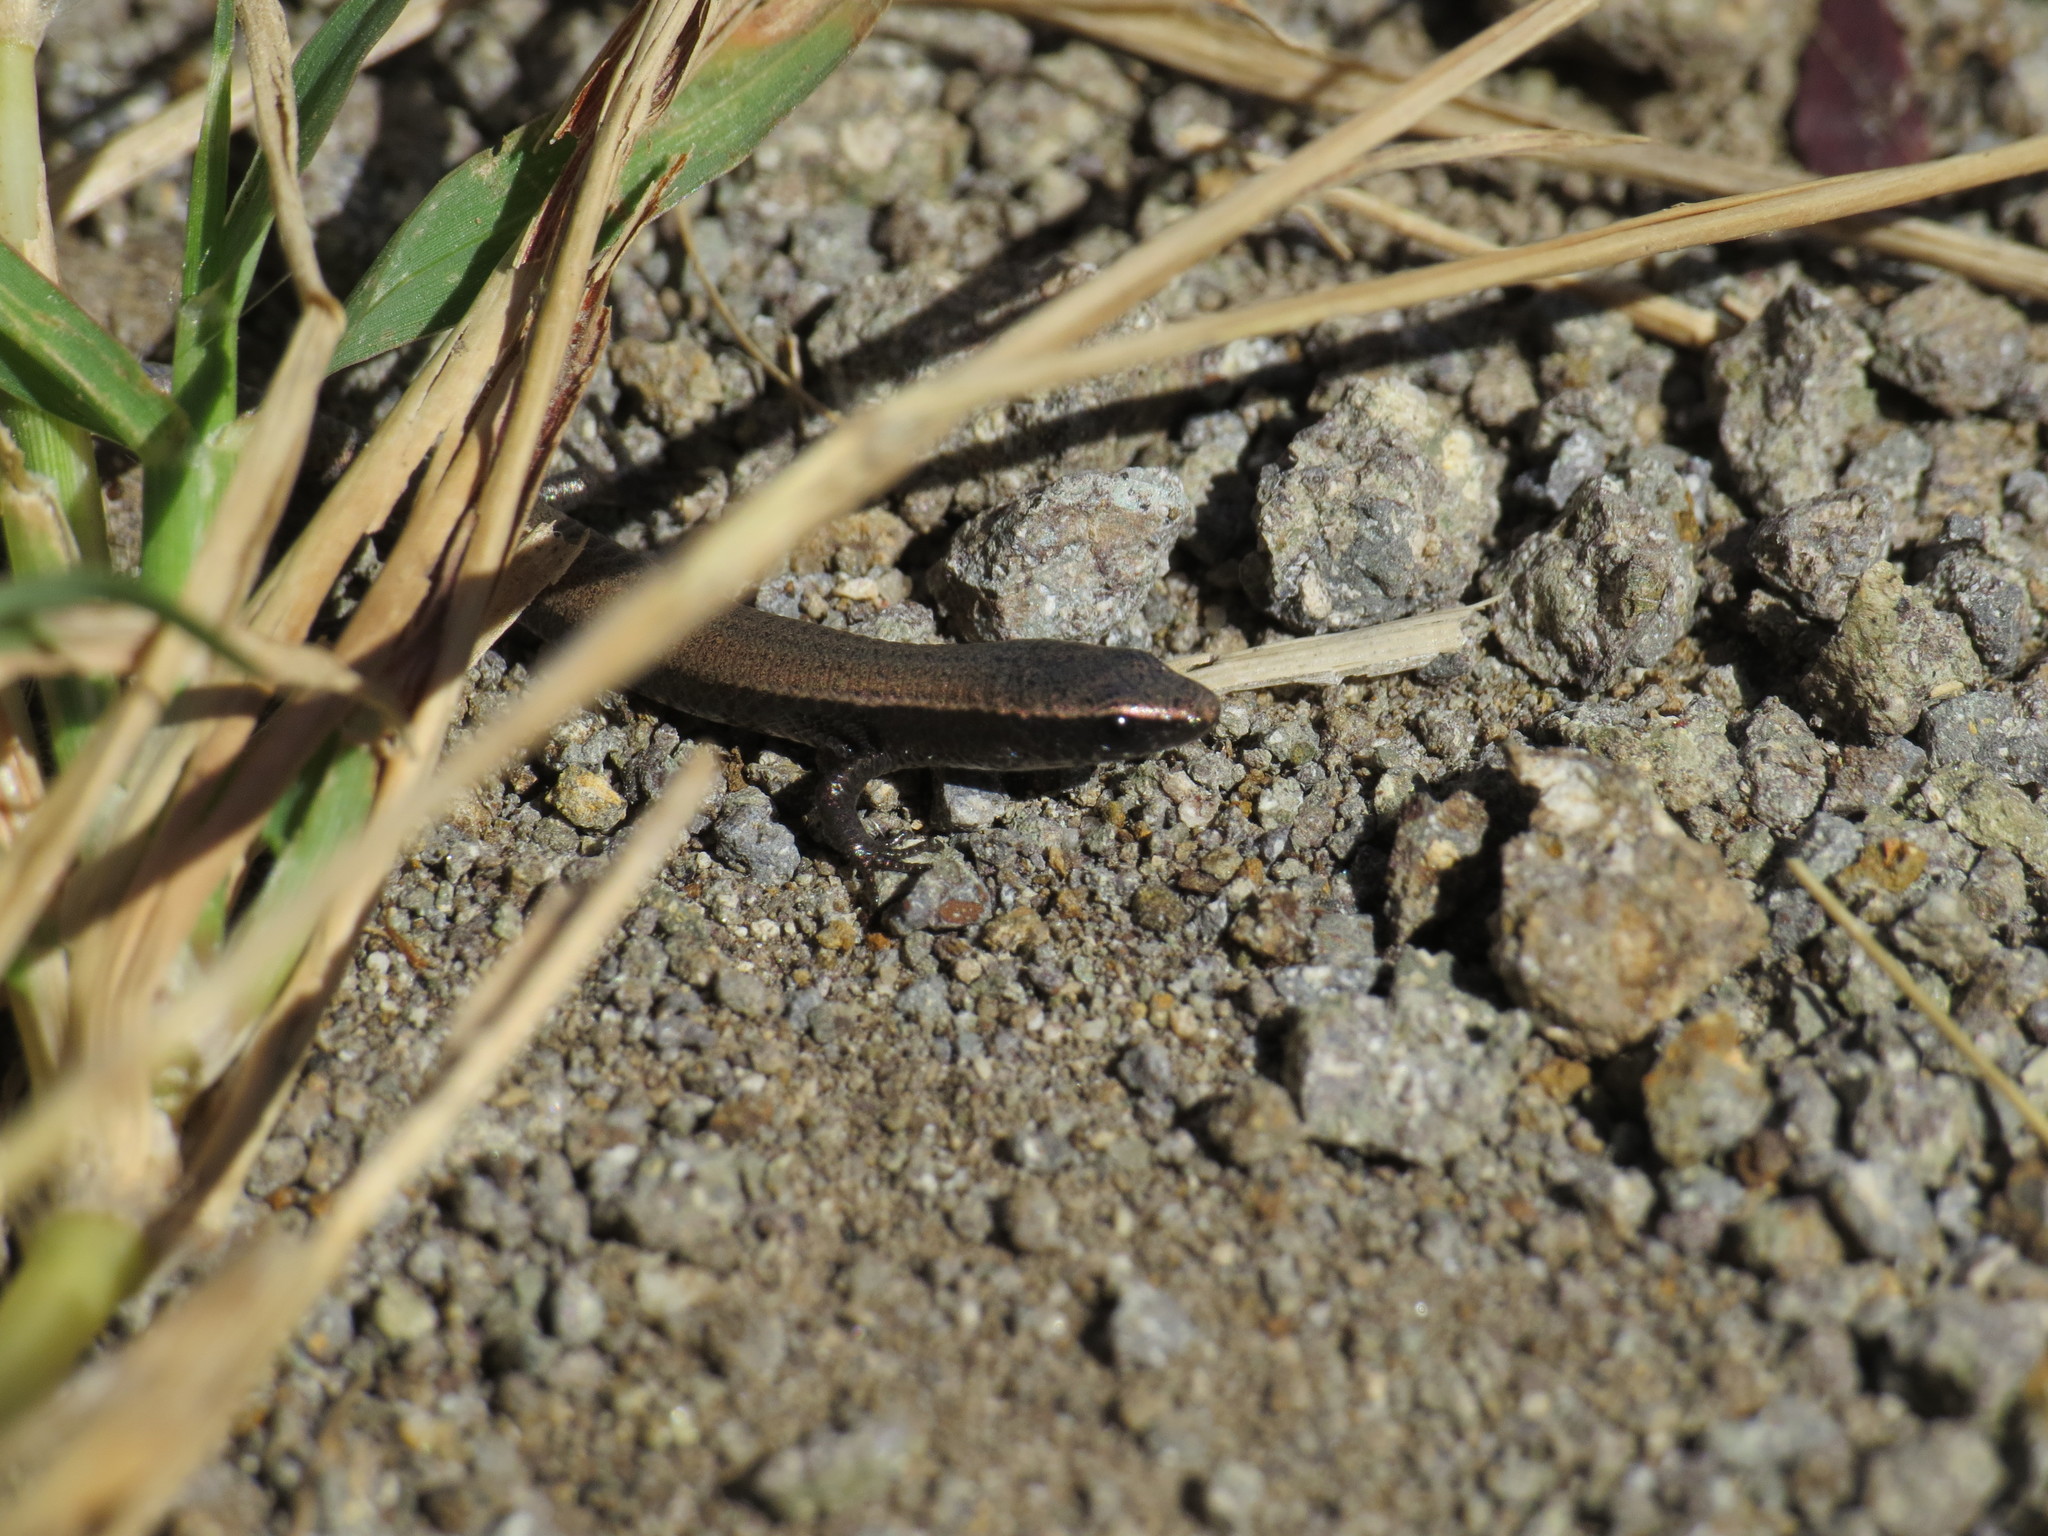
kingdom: Animalia
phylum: Chordata
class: Squamata
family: Gymnophthalmidae
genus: Gymnophthalmus
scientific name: Gymnophthalmus underwoodi
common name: Underwood's spectacled tegu
